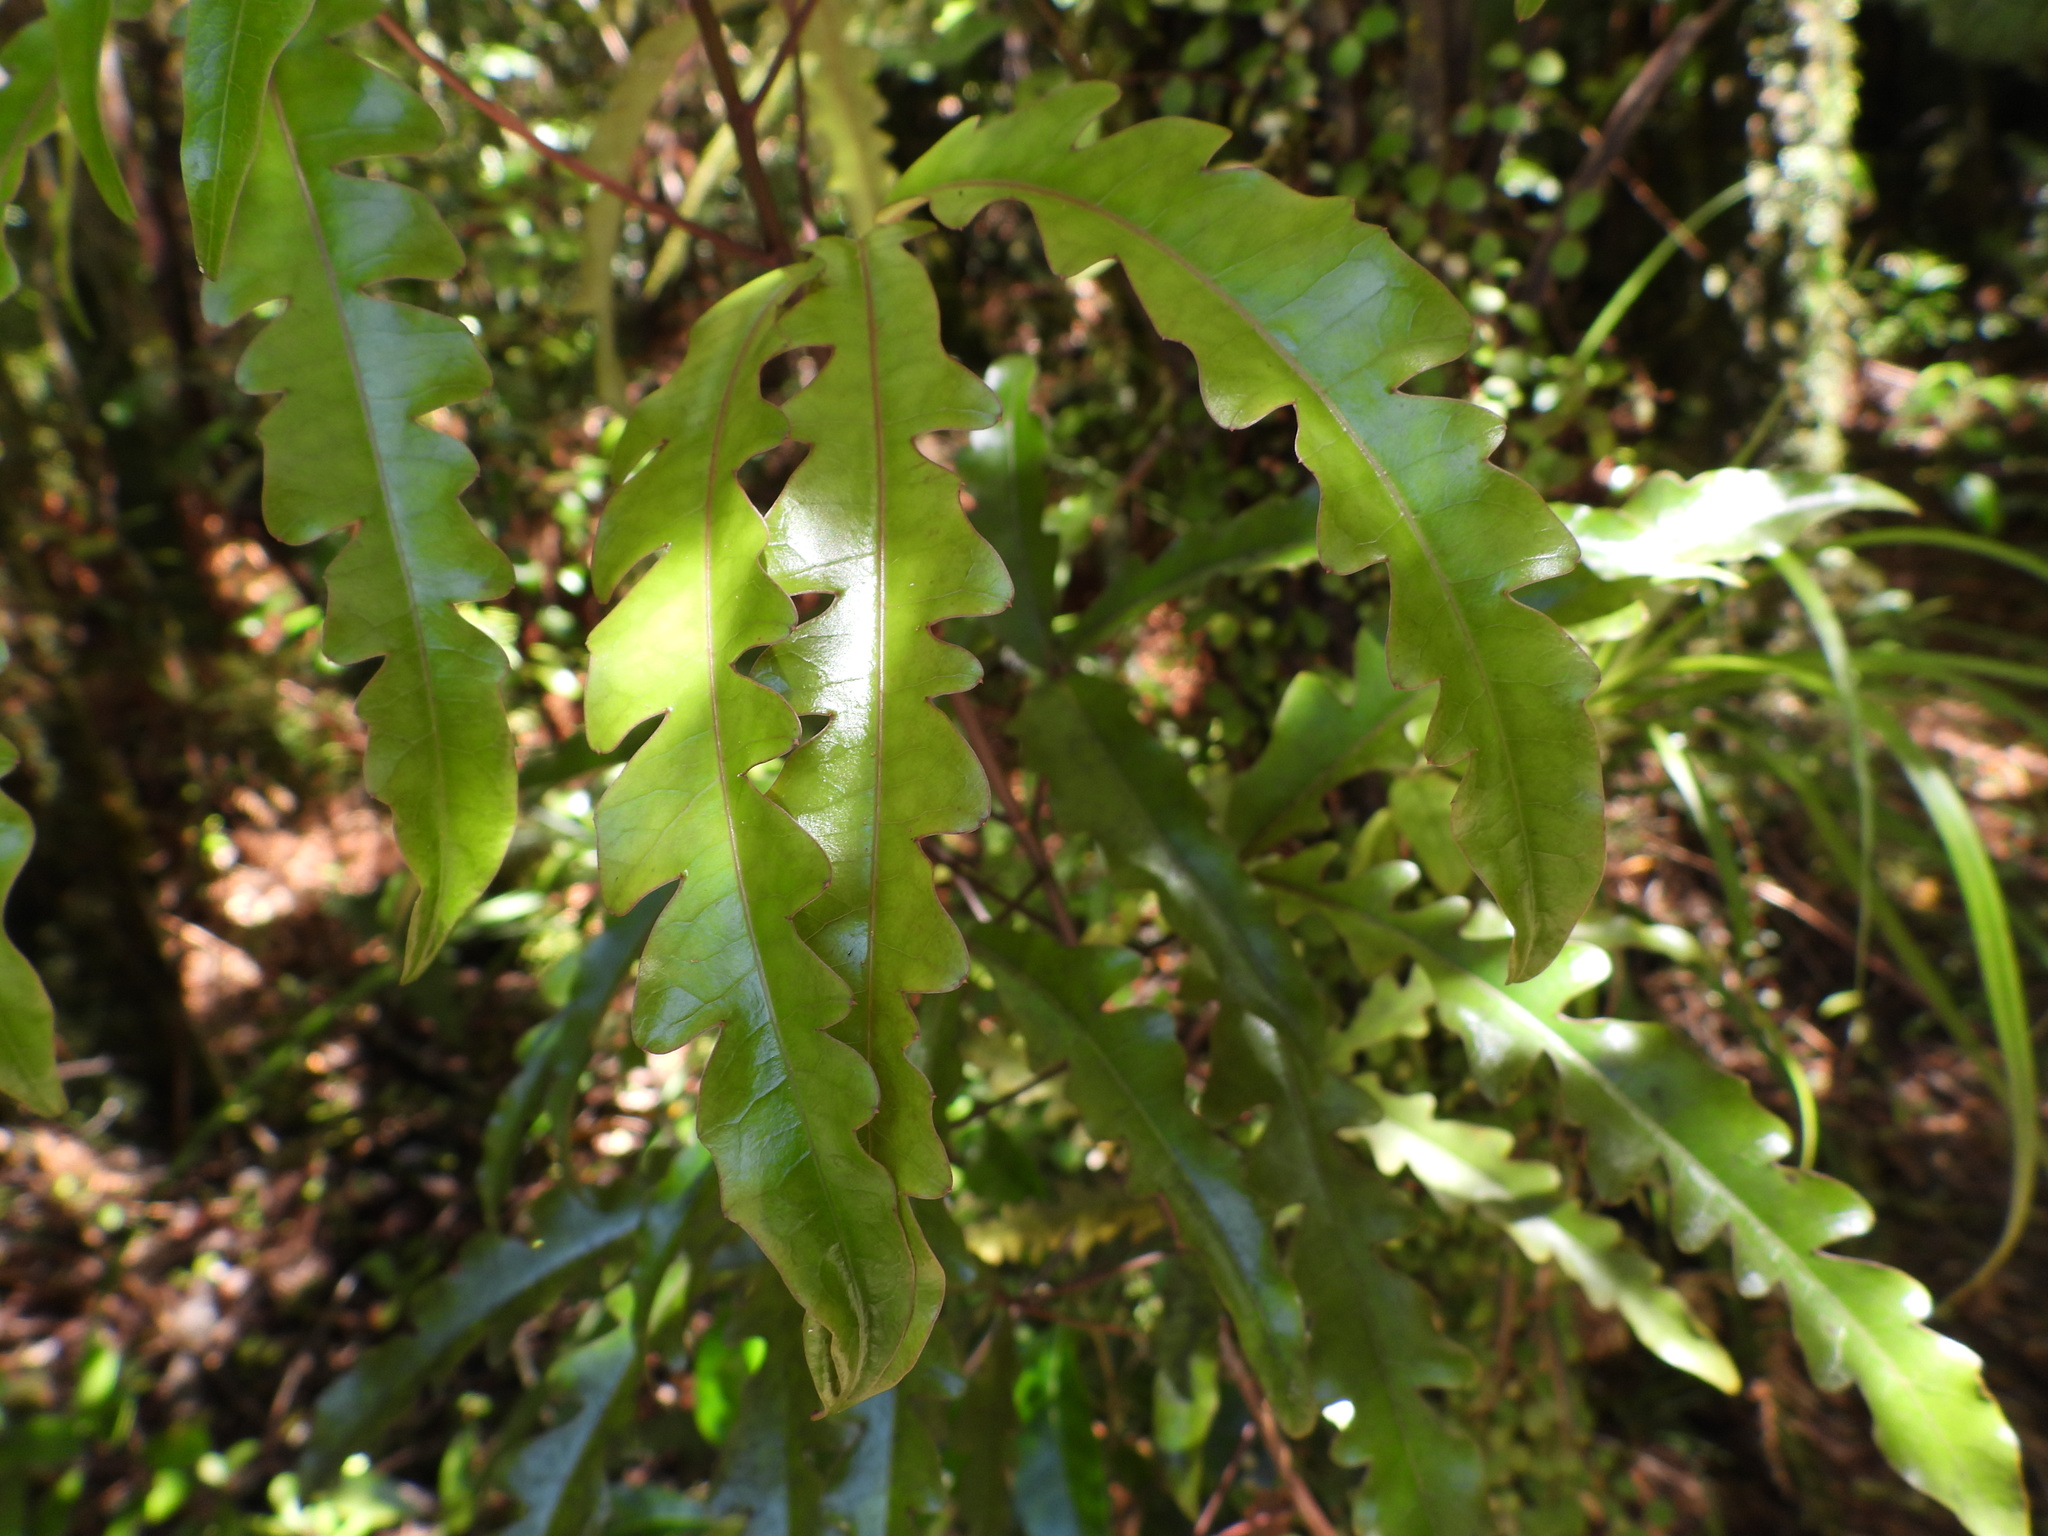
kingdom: Plantae
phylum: Tracheophyta
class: Magnoliopsida
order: Apiales
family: Araliaceae
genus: Raukaua
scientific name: Raukaua edgerleyi
